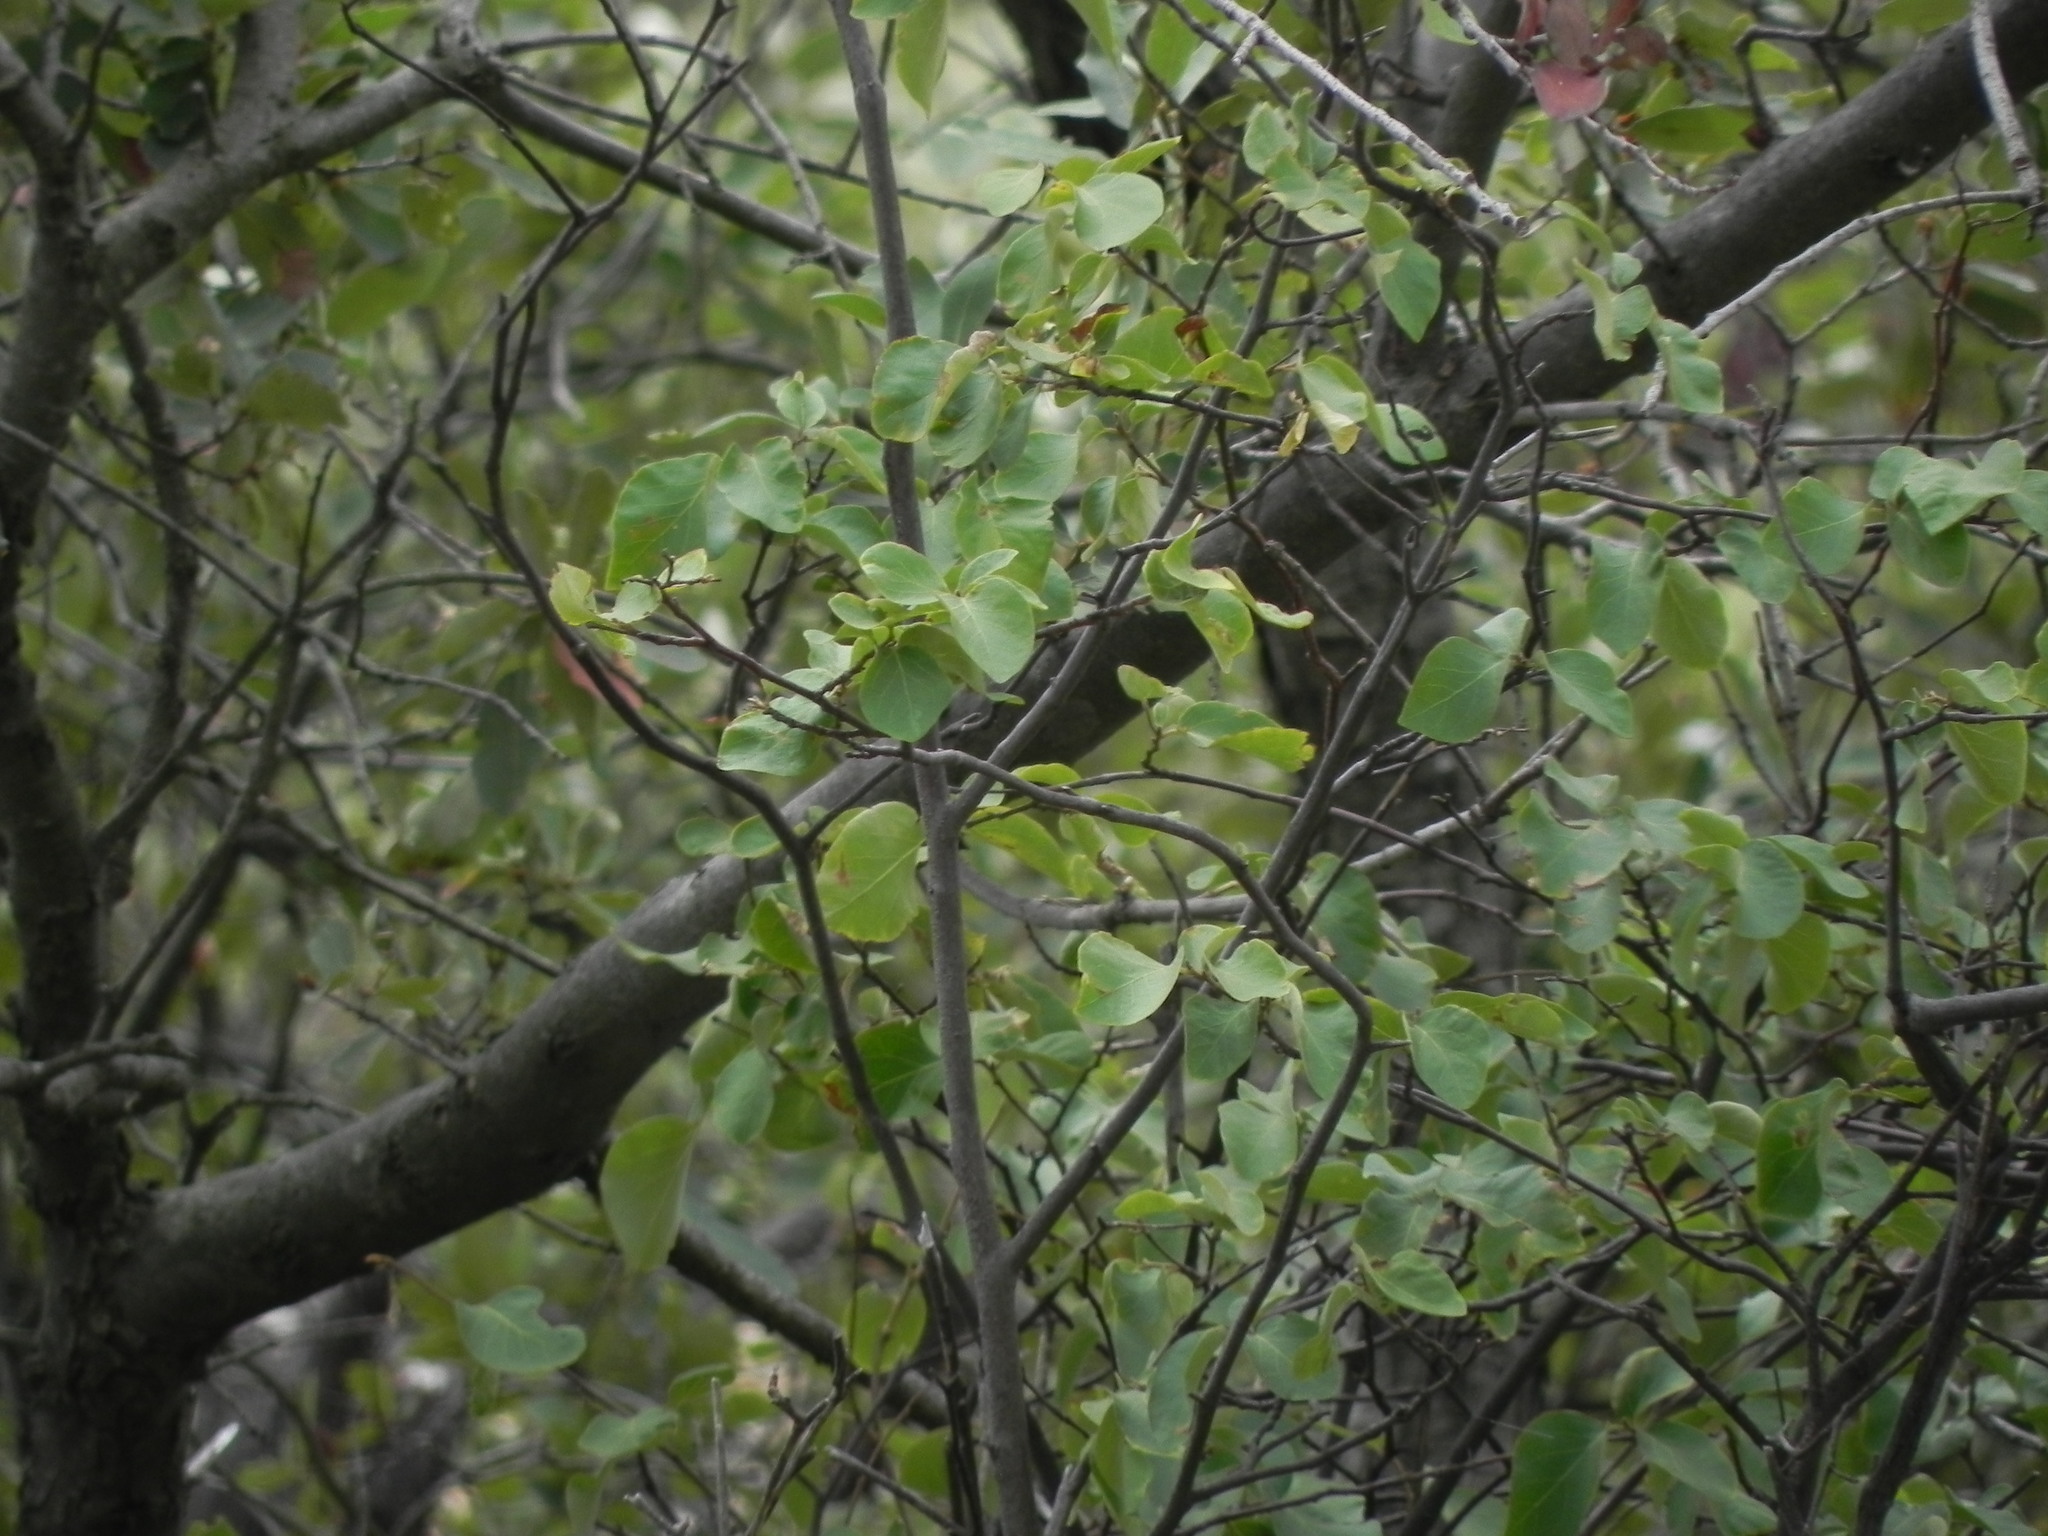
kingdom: Plantae
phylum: Tracheophyta
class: Magnoliopsida
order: Ericales
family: Styracaceae
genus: Styrax
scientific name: Styrax redivivus
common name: California styrax
